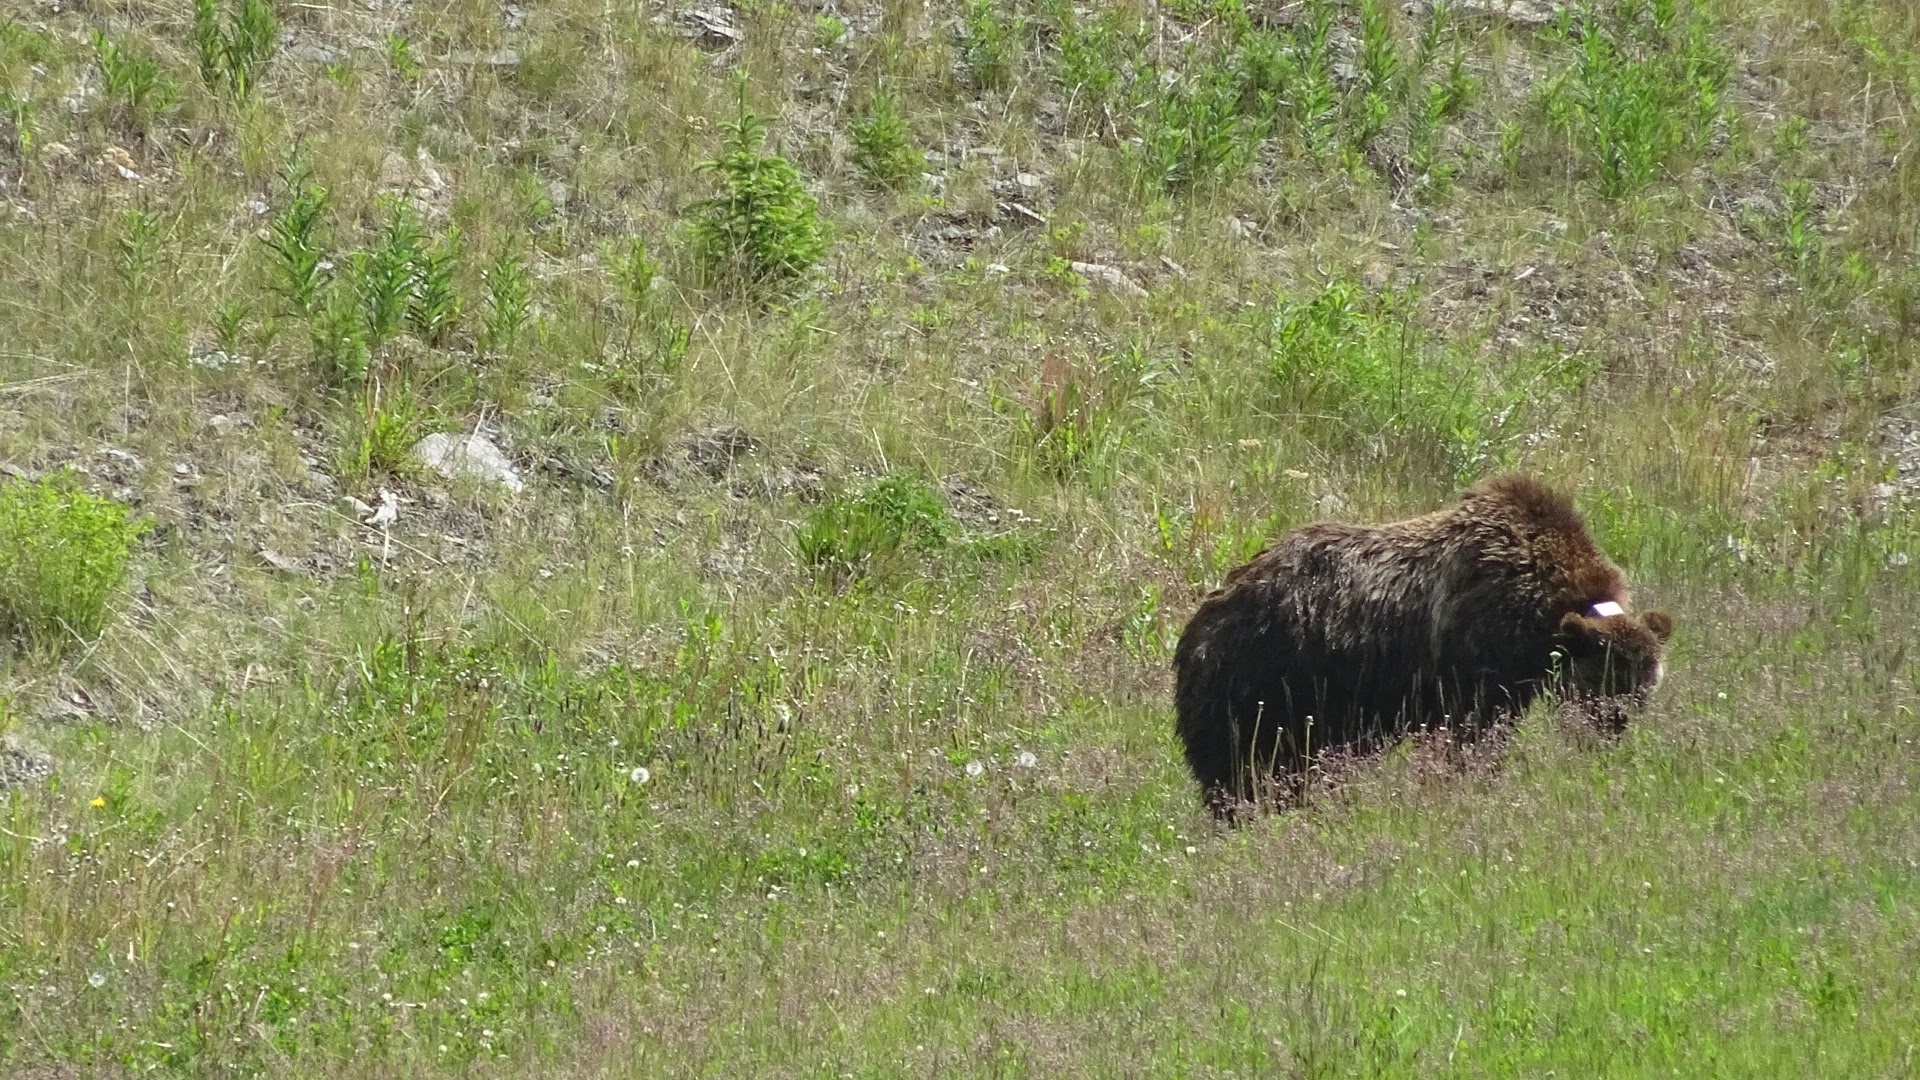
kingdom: Animalia
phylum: Chordata
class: Mammalia
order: Carnivora
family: Ursidae
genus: Ursus
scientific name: Ursus arctos
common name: Brown bear
